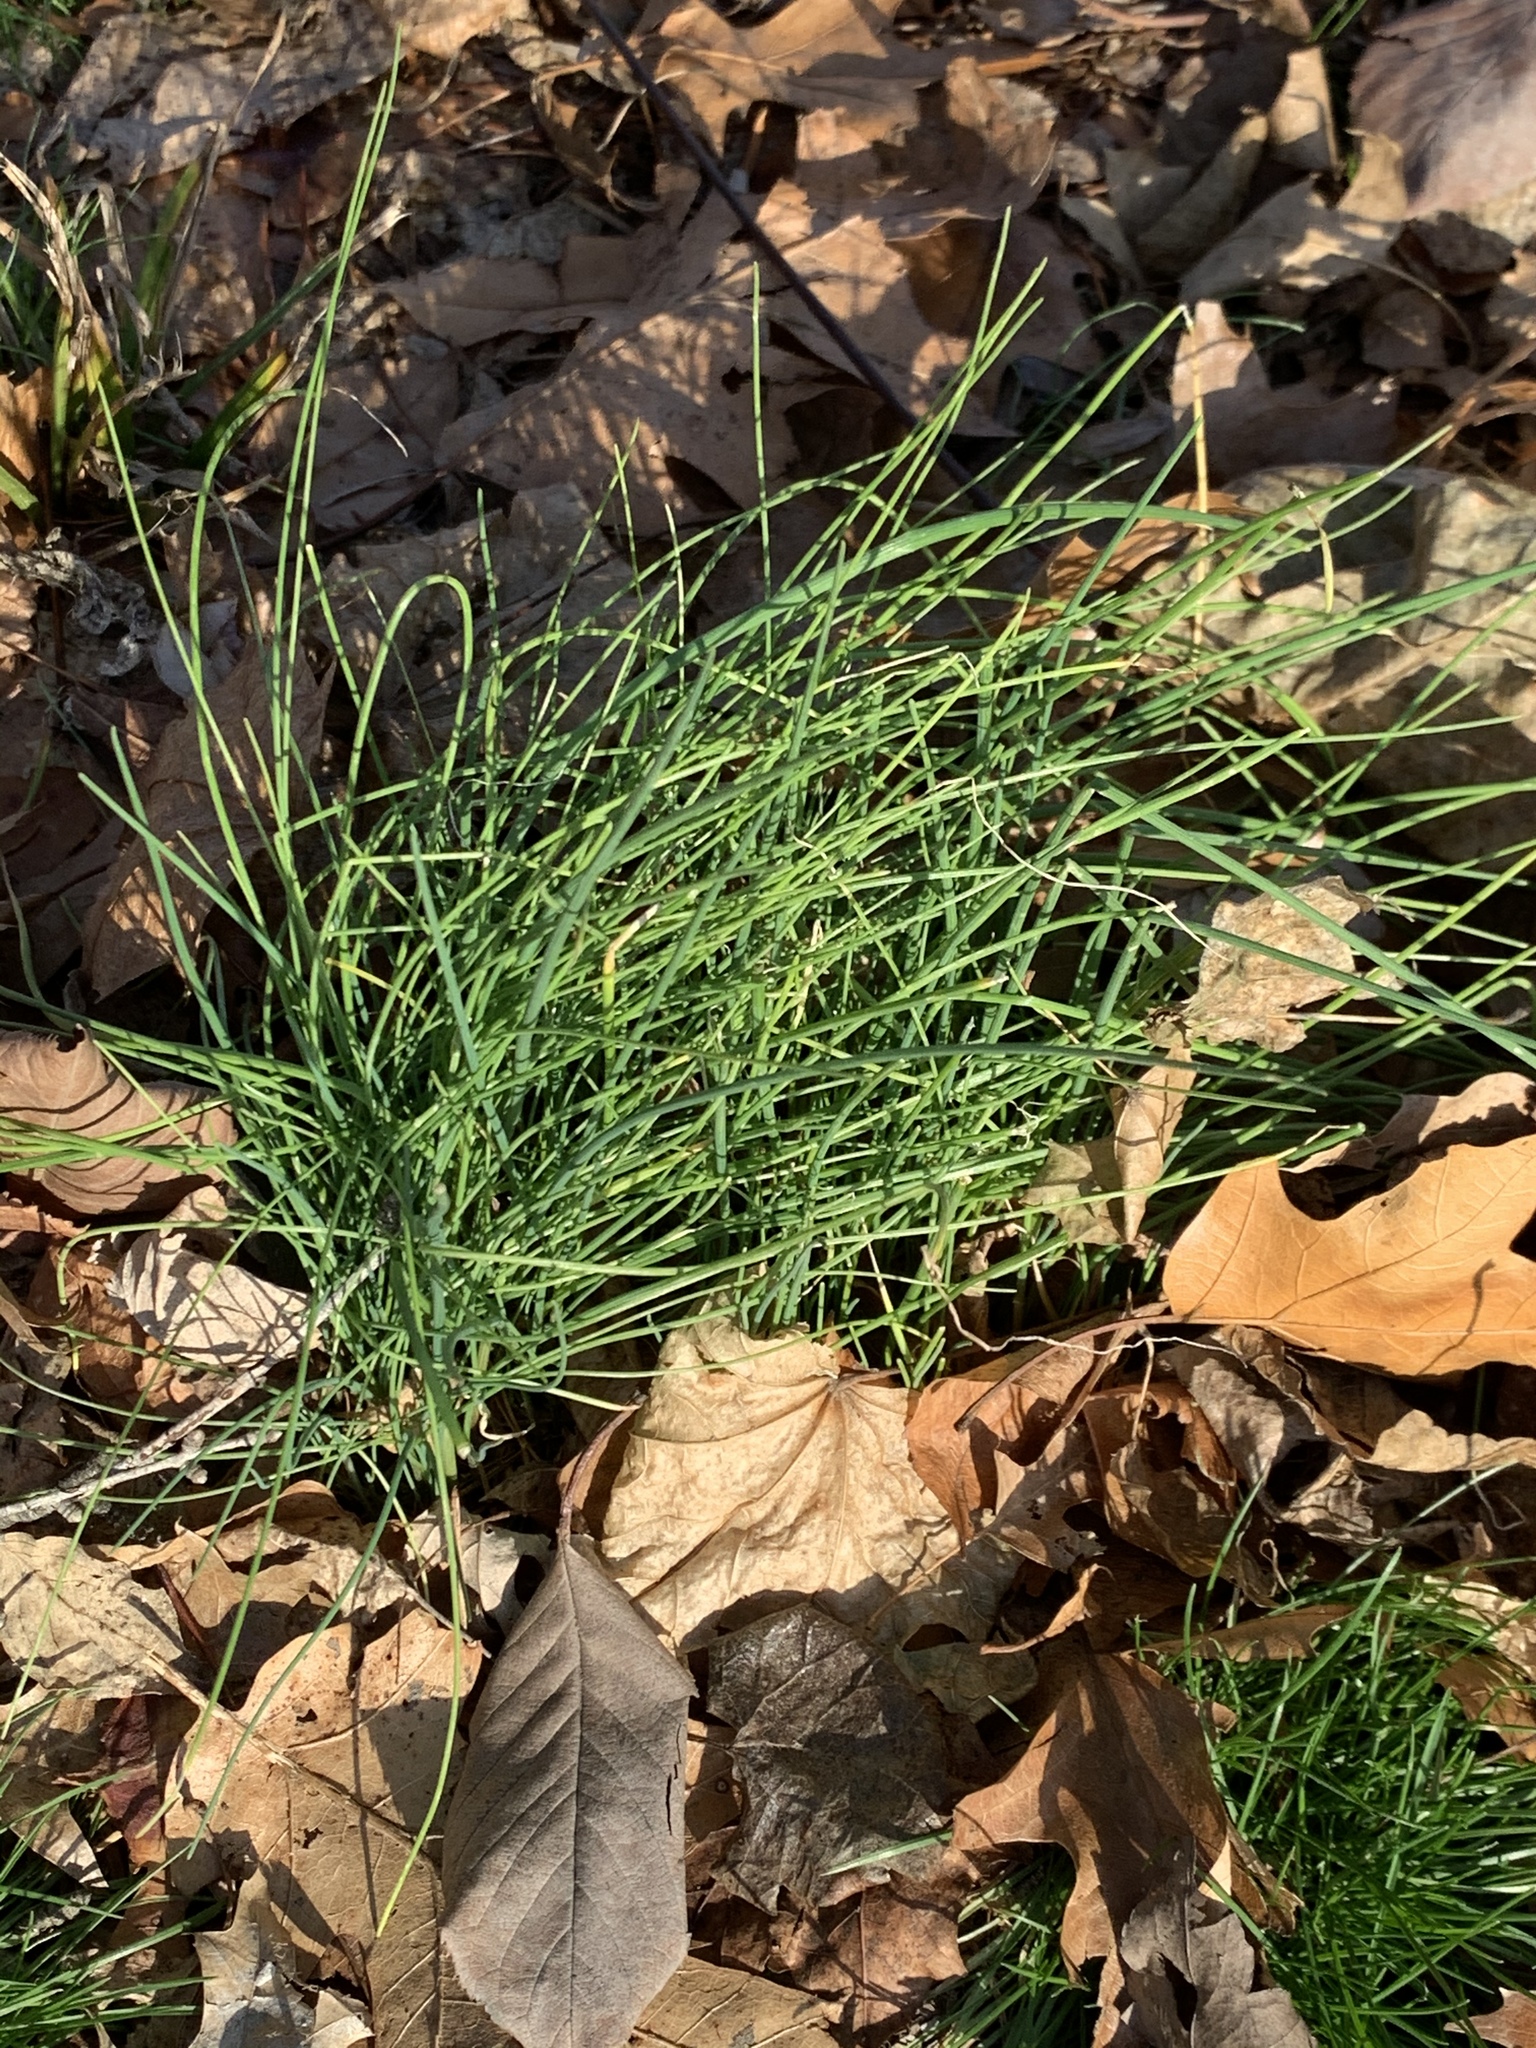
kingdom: Plantae
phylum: Tracheophyta
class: Liliopsida
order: Asparagales
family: Amaryllidaceae
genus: Allium
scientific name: Allium vineale
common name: Crow garlic
